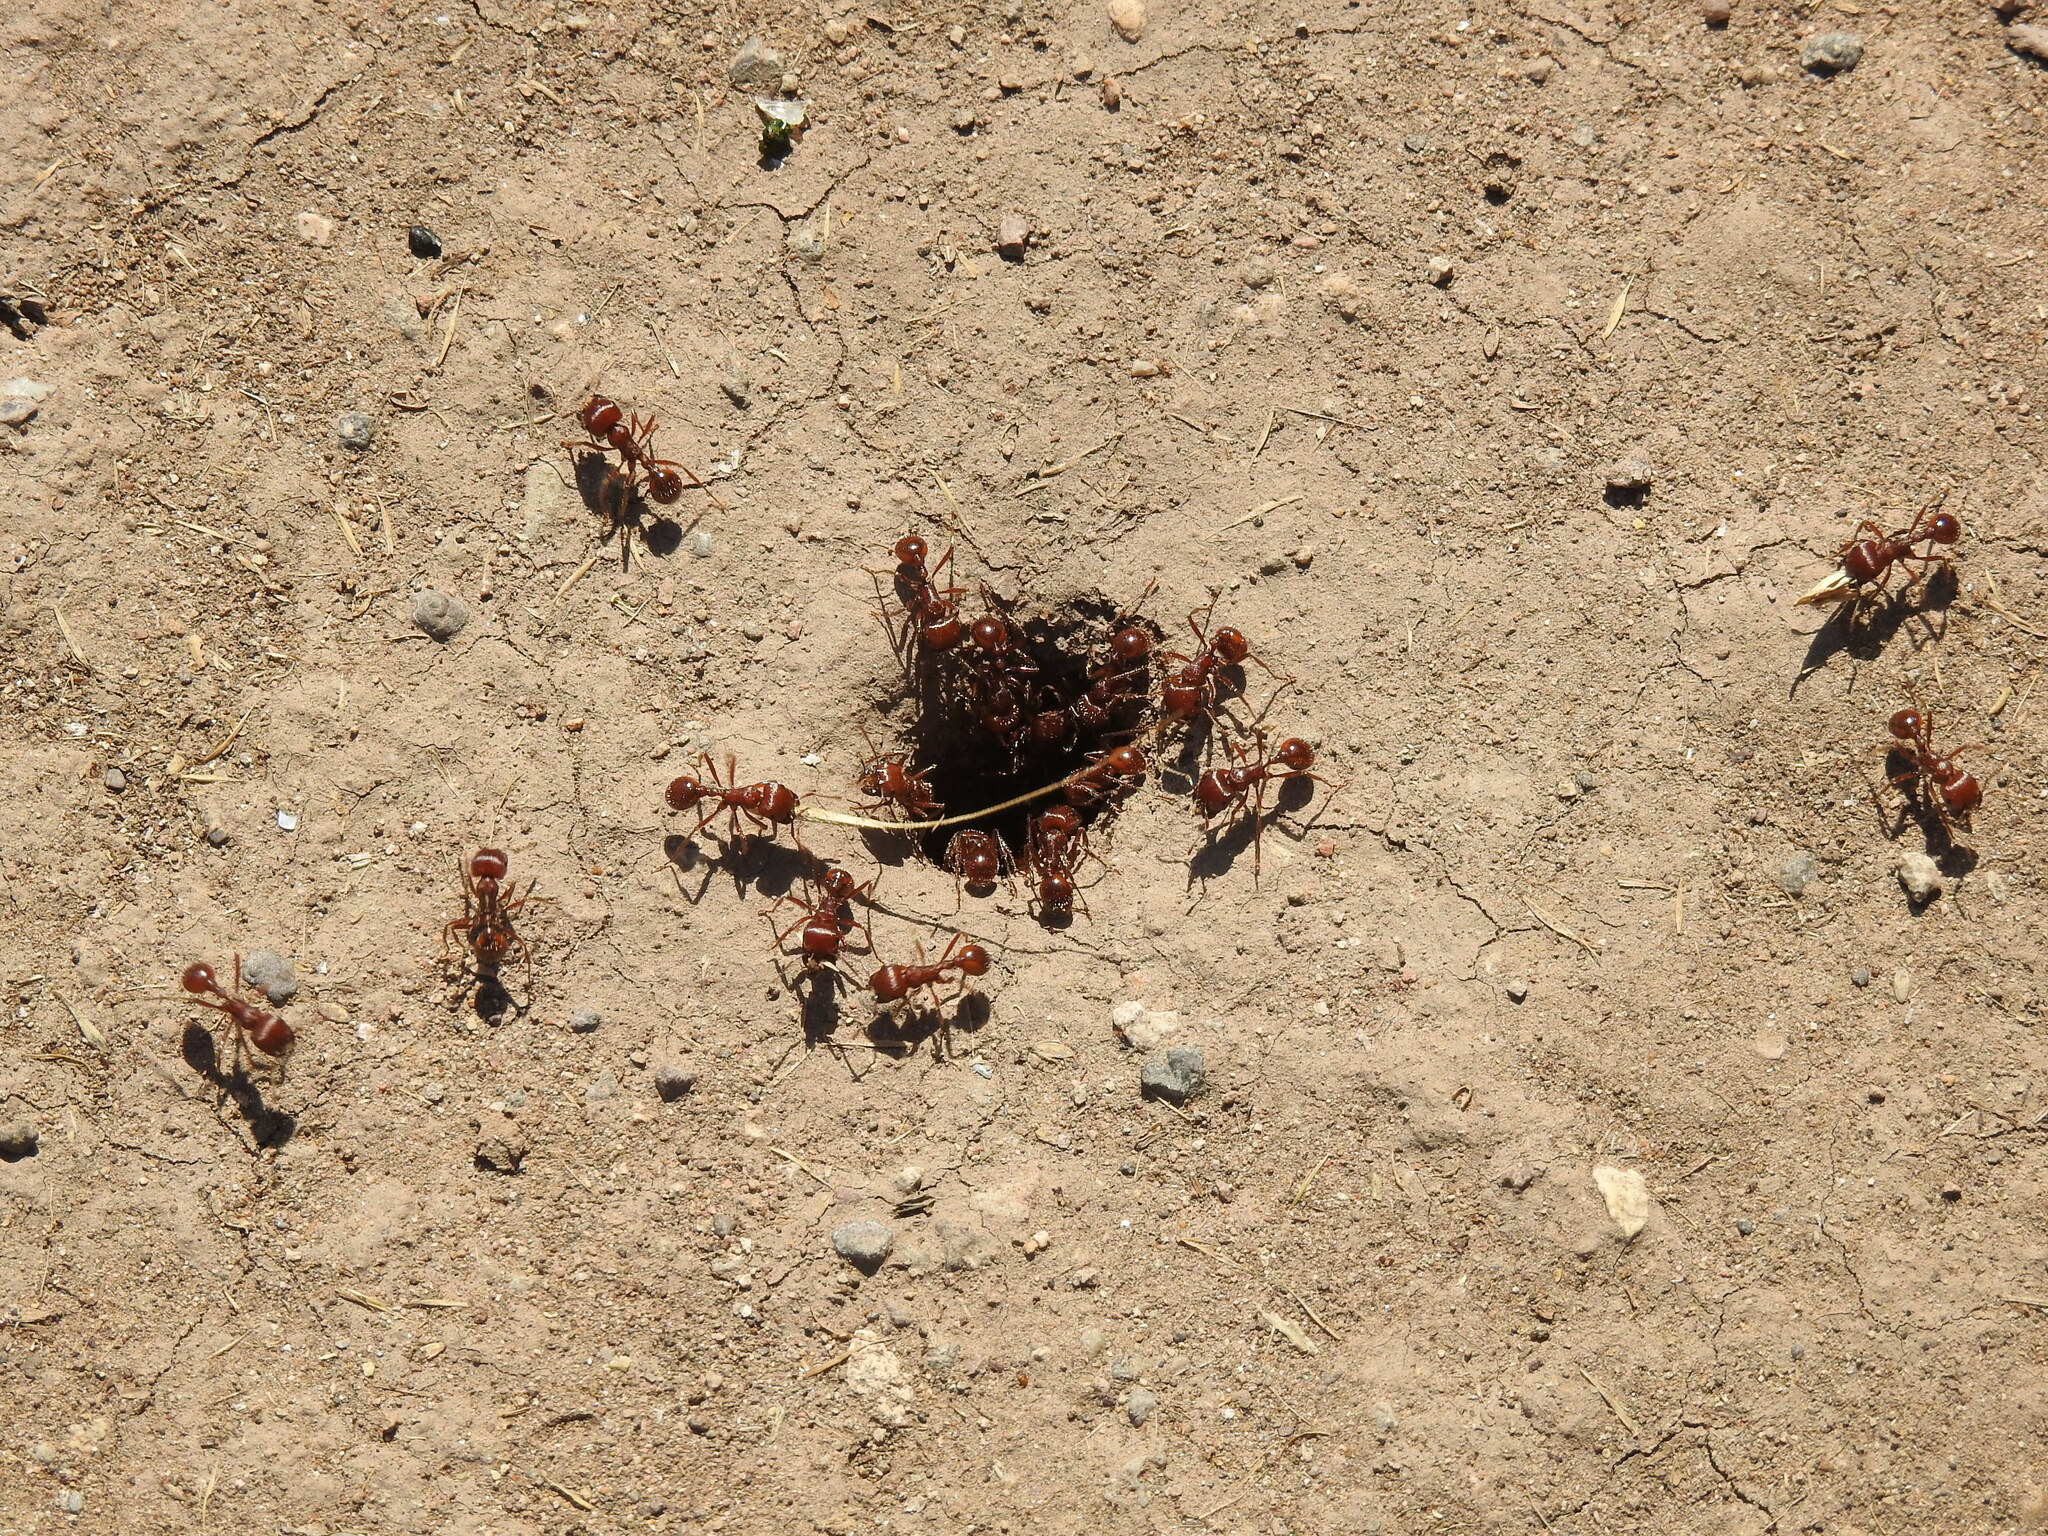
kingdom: Animalia
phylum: Arthropoda
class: Insecta
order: Hymenoptera
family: Formicidae
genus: Pogonomyrmex
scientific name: Pogonomyrmex barbatus
